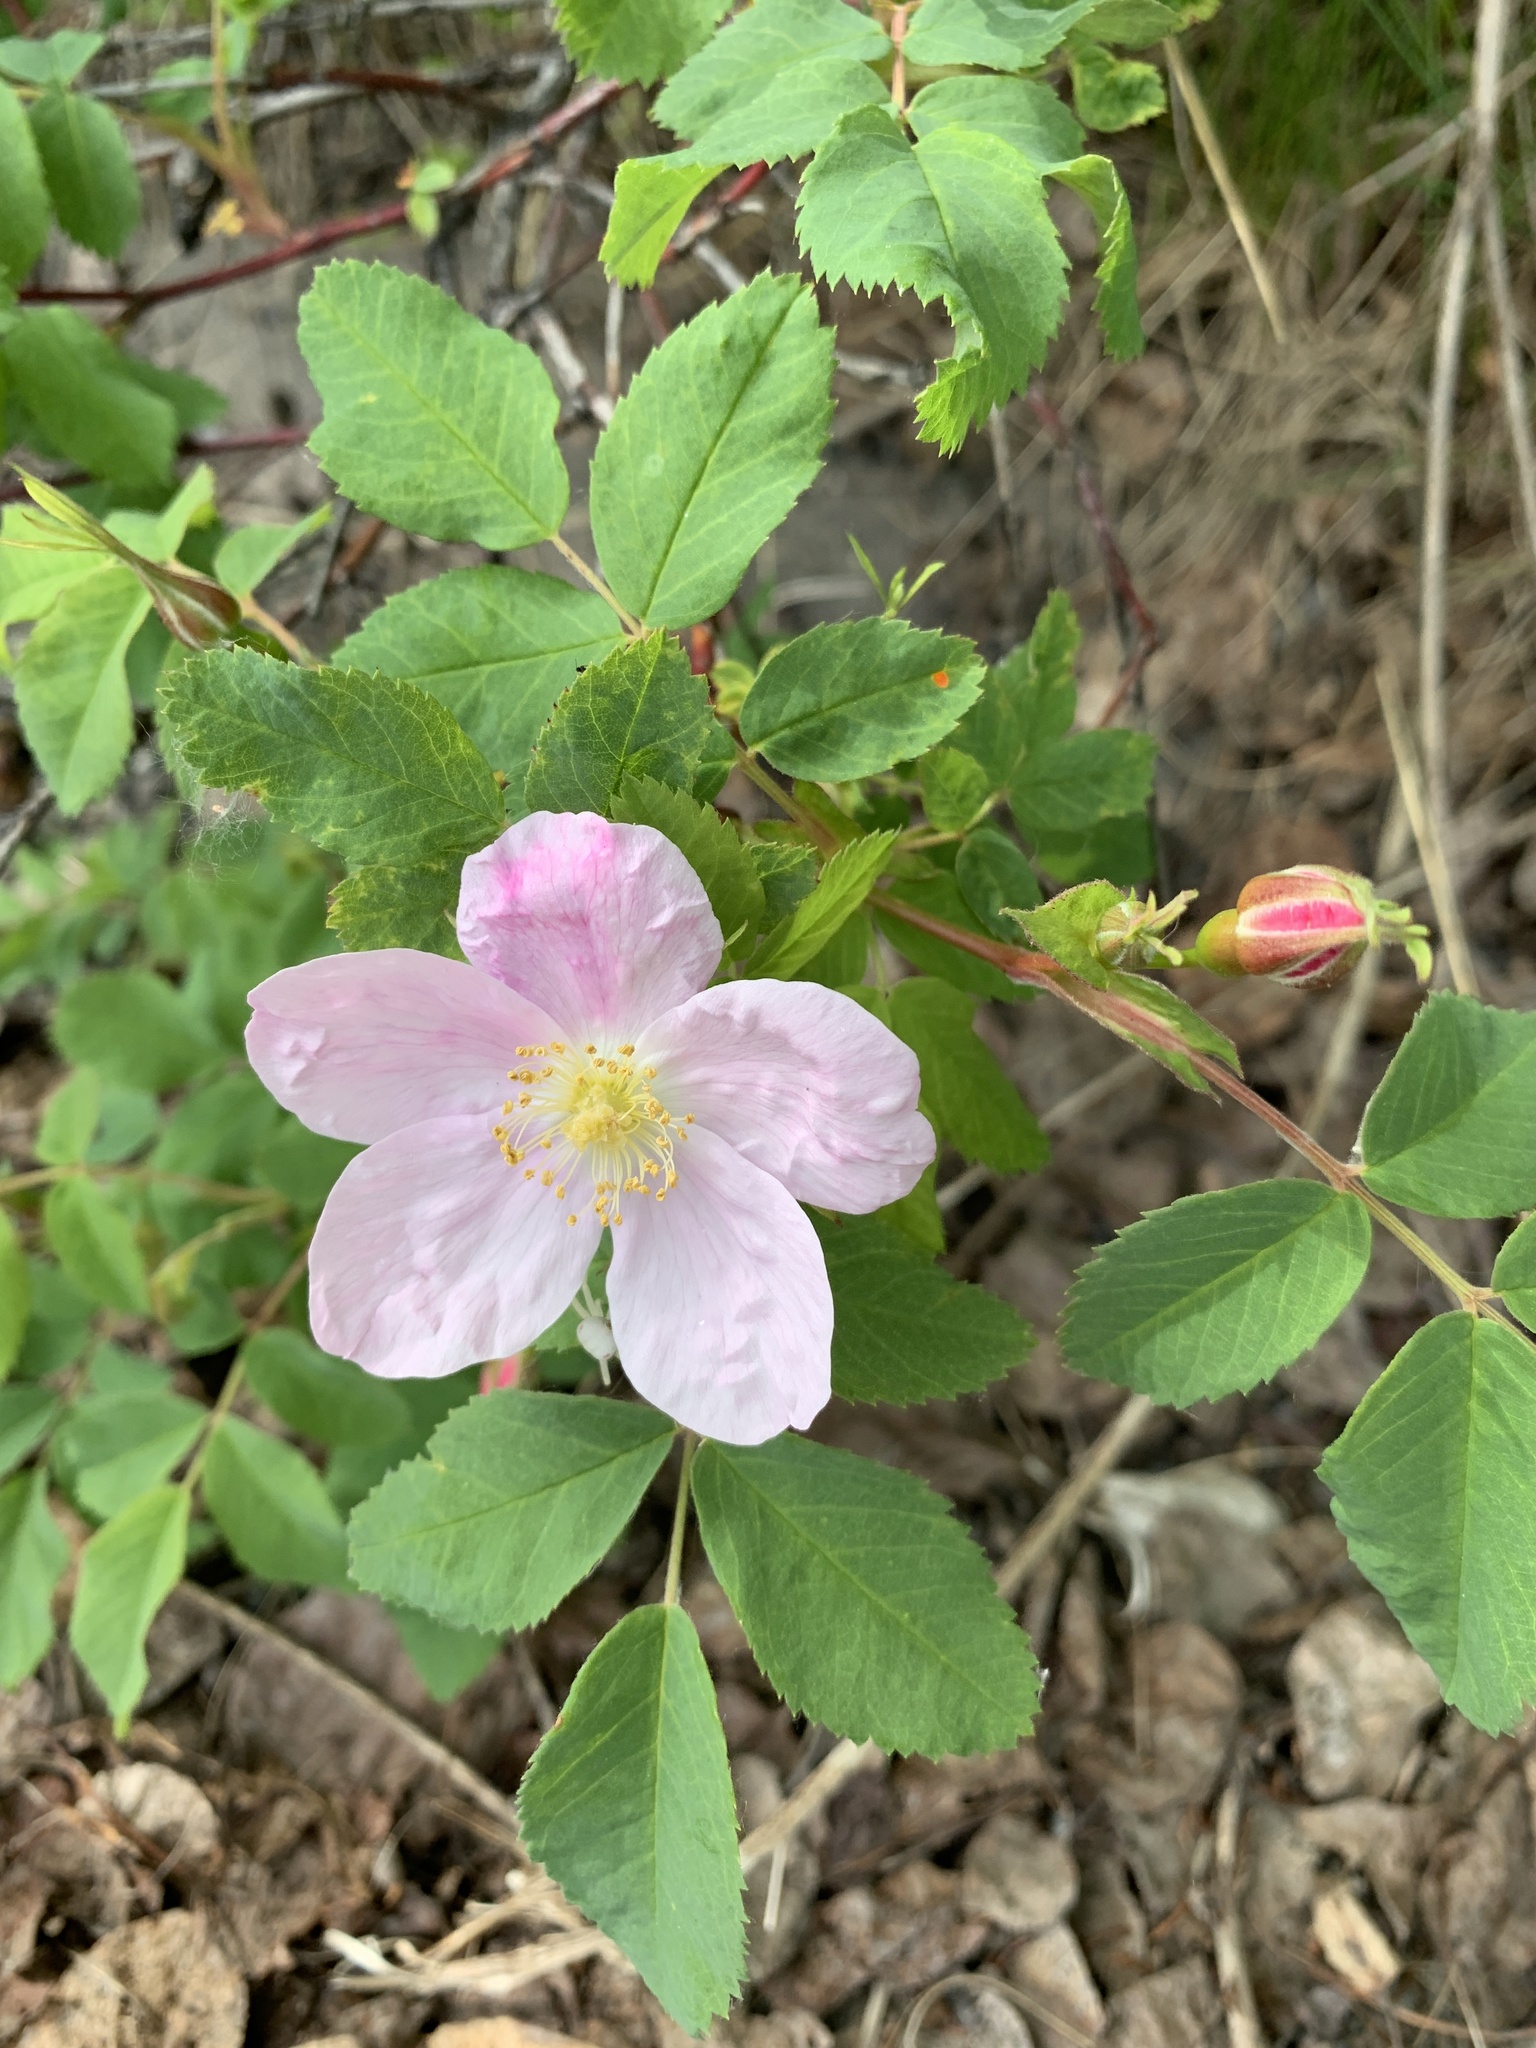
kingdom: Plantae
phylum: Tracheophyta
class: Magnoliopsida
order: Rosales
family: Rosaceae
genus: Rosa
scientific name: Rosa acicularis
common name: Prickly rose
